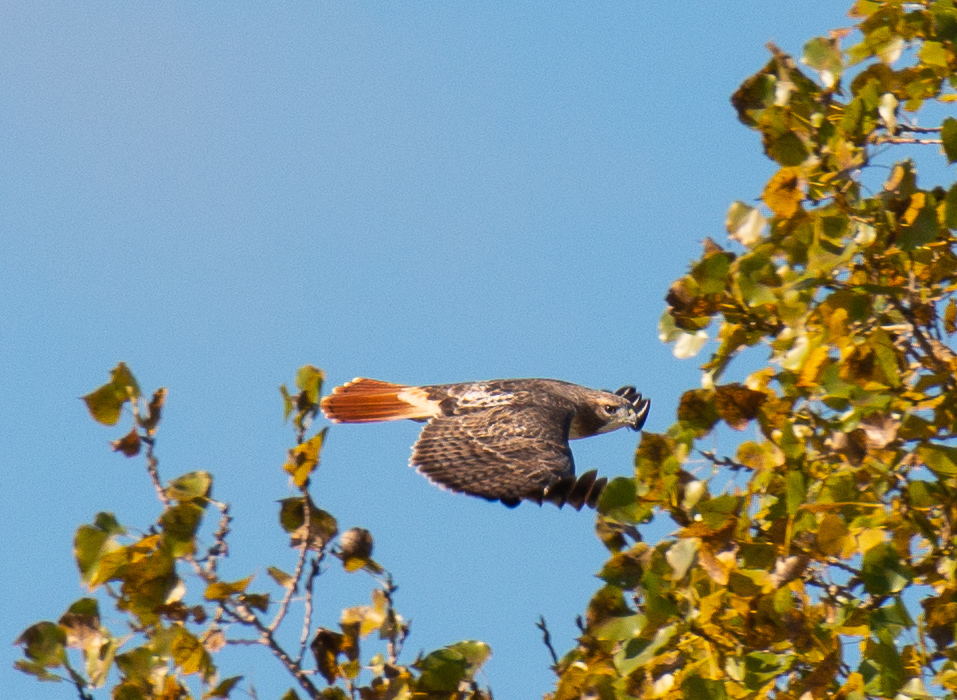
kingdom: Animalia
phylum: Chordata
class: Aves
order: Accipitriformes
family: Accipitridae
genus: Buteo
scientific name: Buteo jamaicensis
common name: Red-tailed hawk
